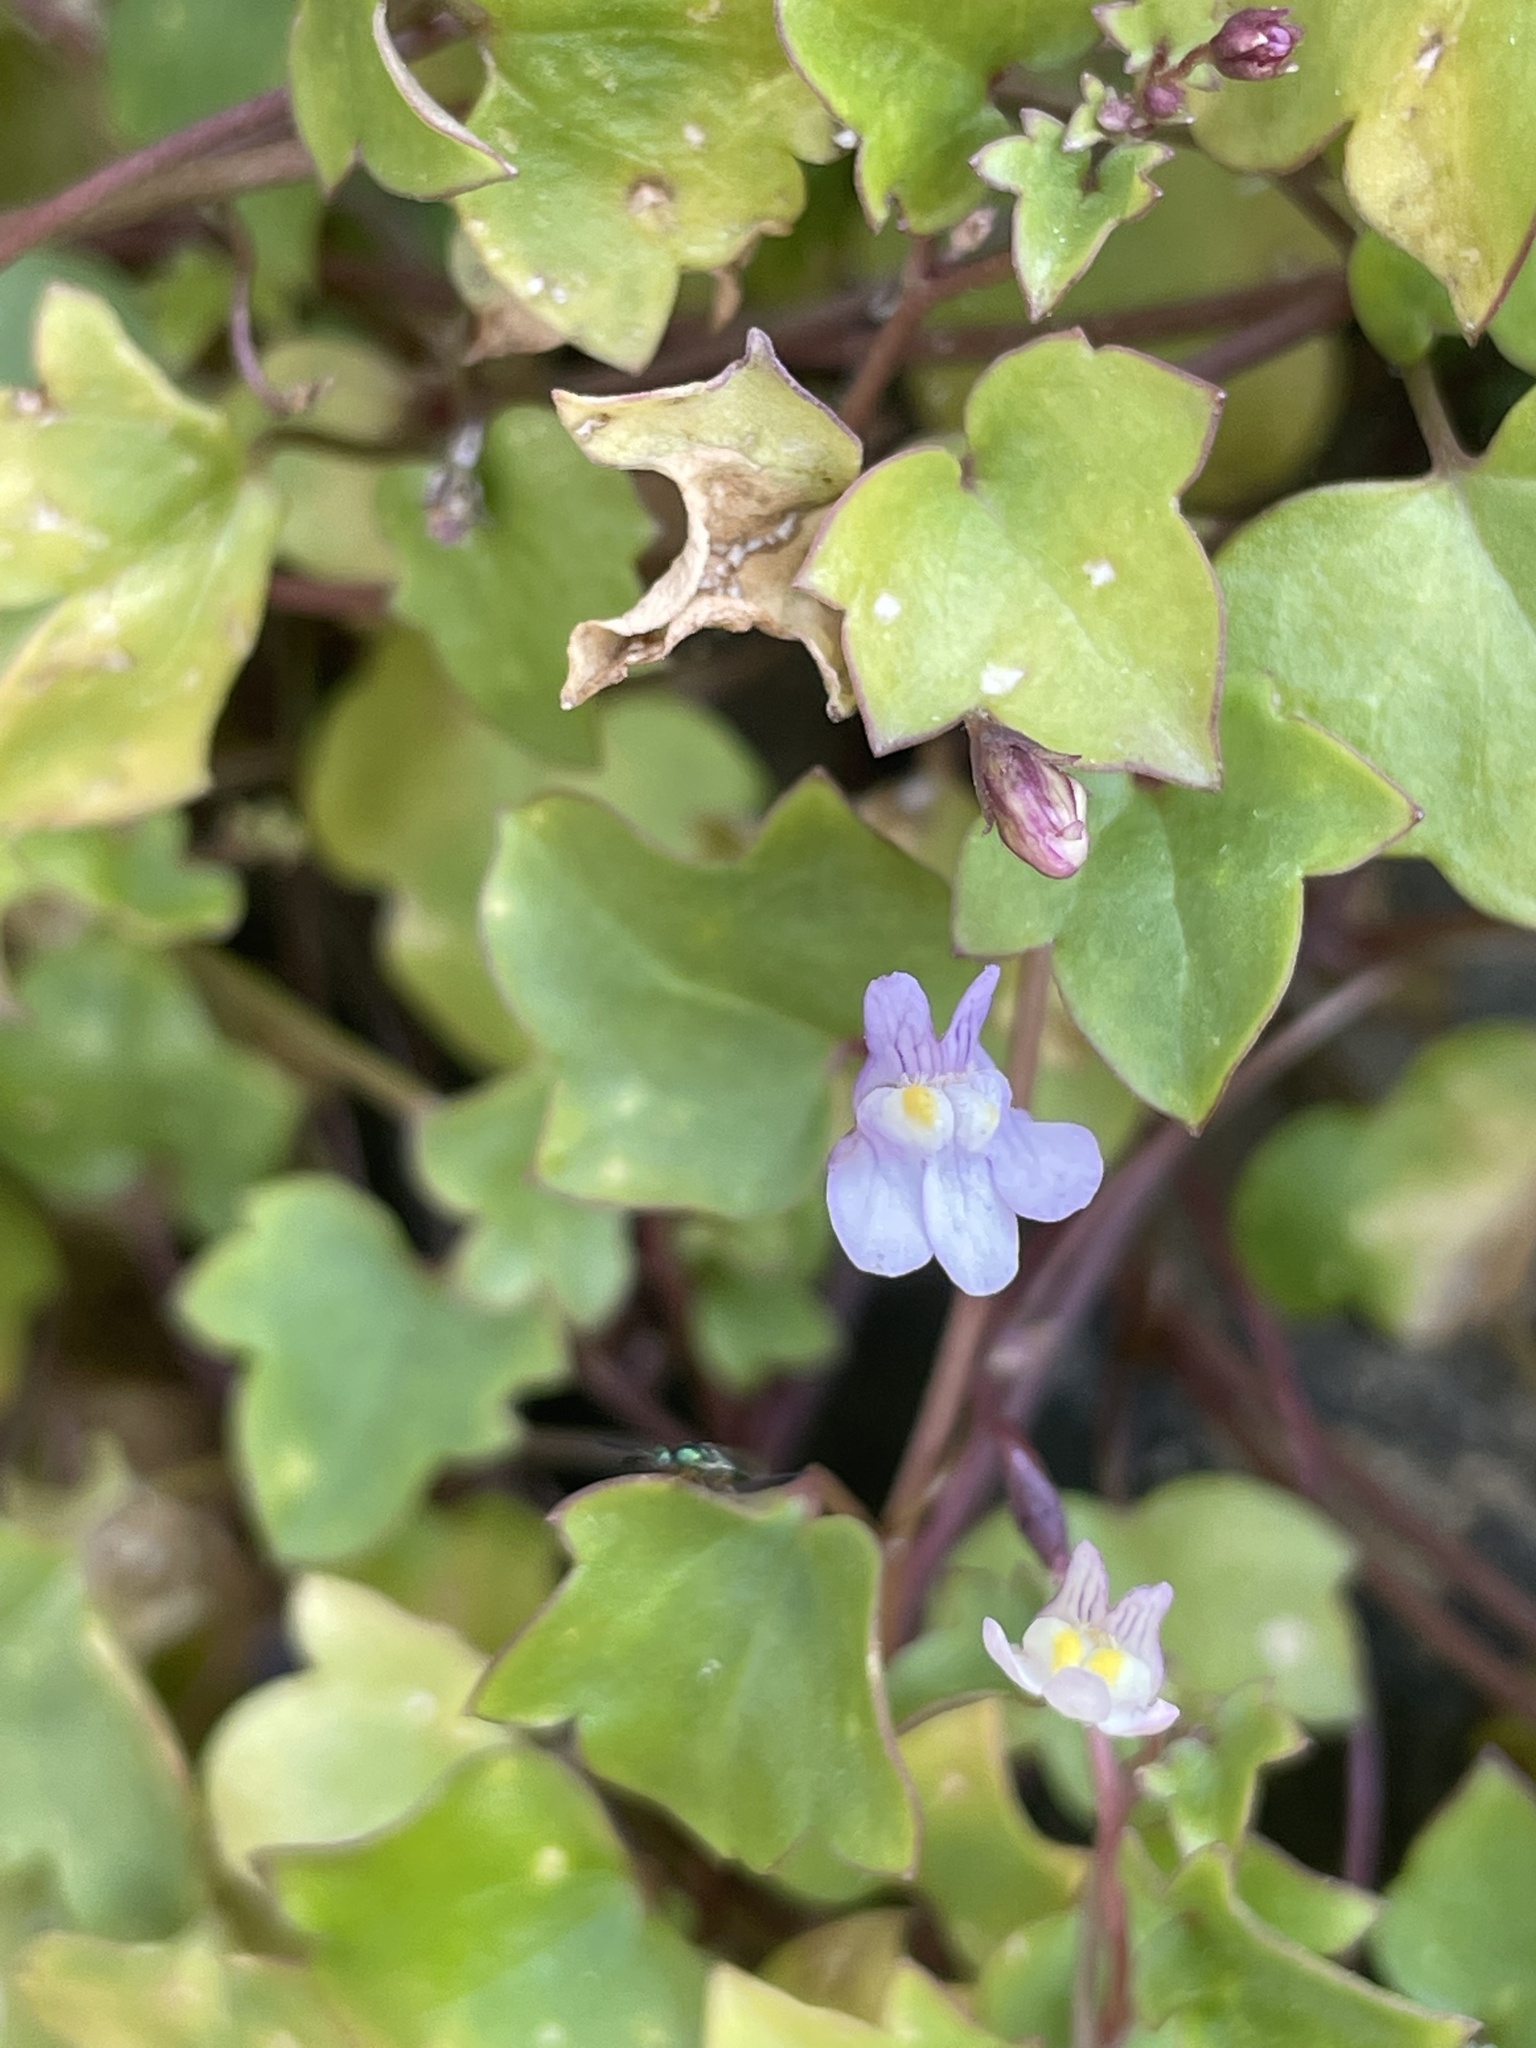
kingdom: Plantae
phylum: Tracheophyta
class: Magnoliopsida
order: Lamiales
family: Plantaginaceae
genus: Cymbalaria
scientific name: Cymbalaria muralis
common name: Ivy-leaved toadflax
